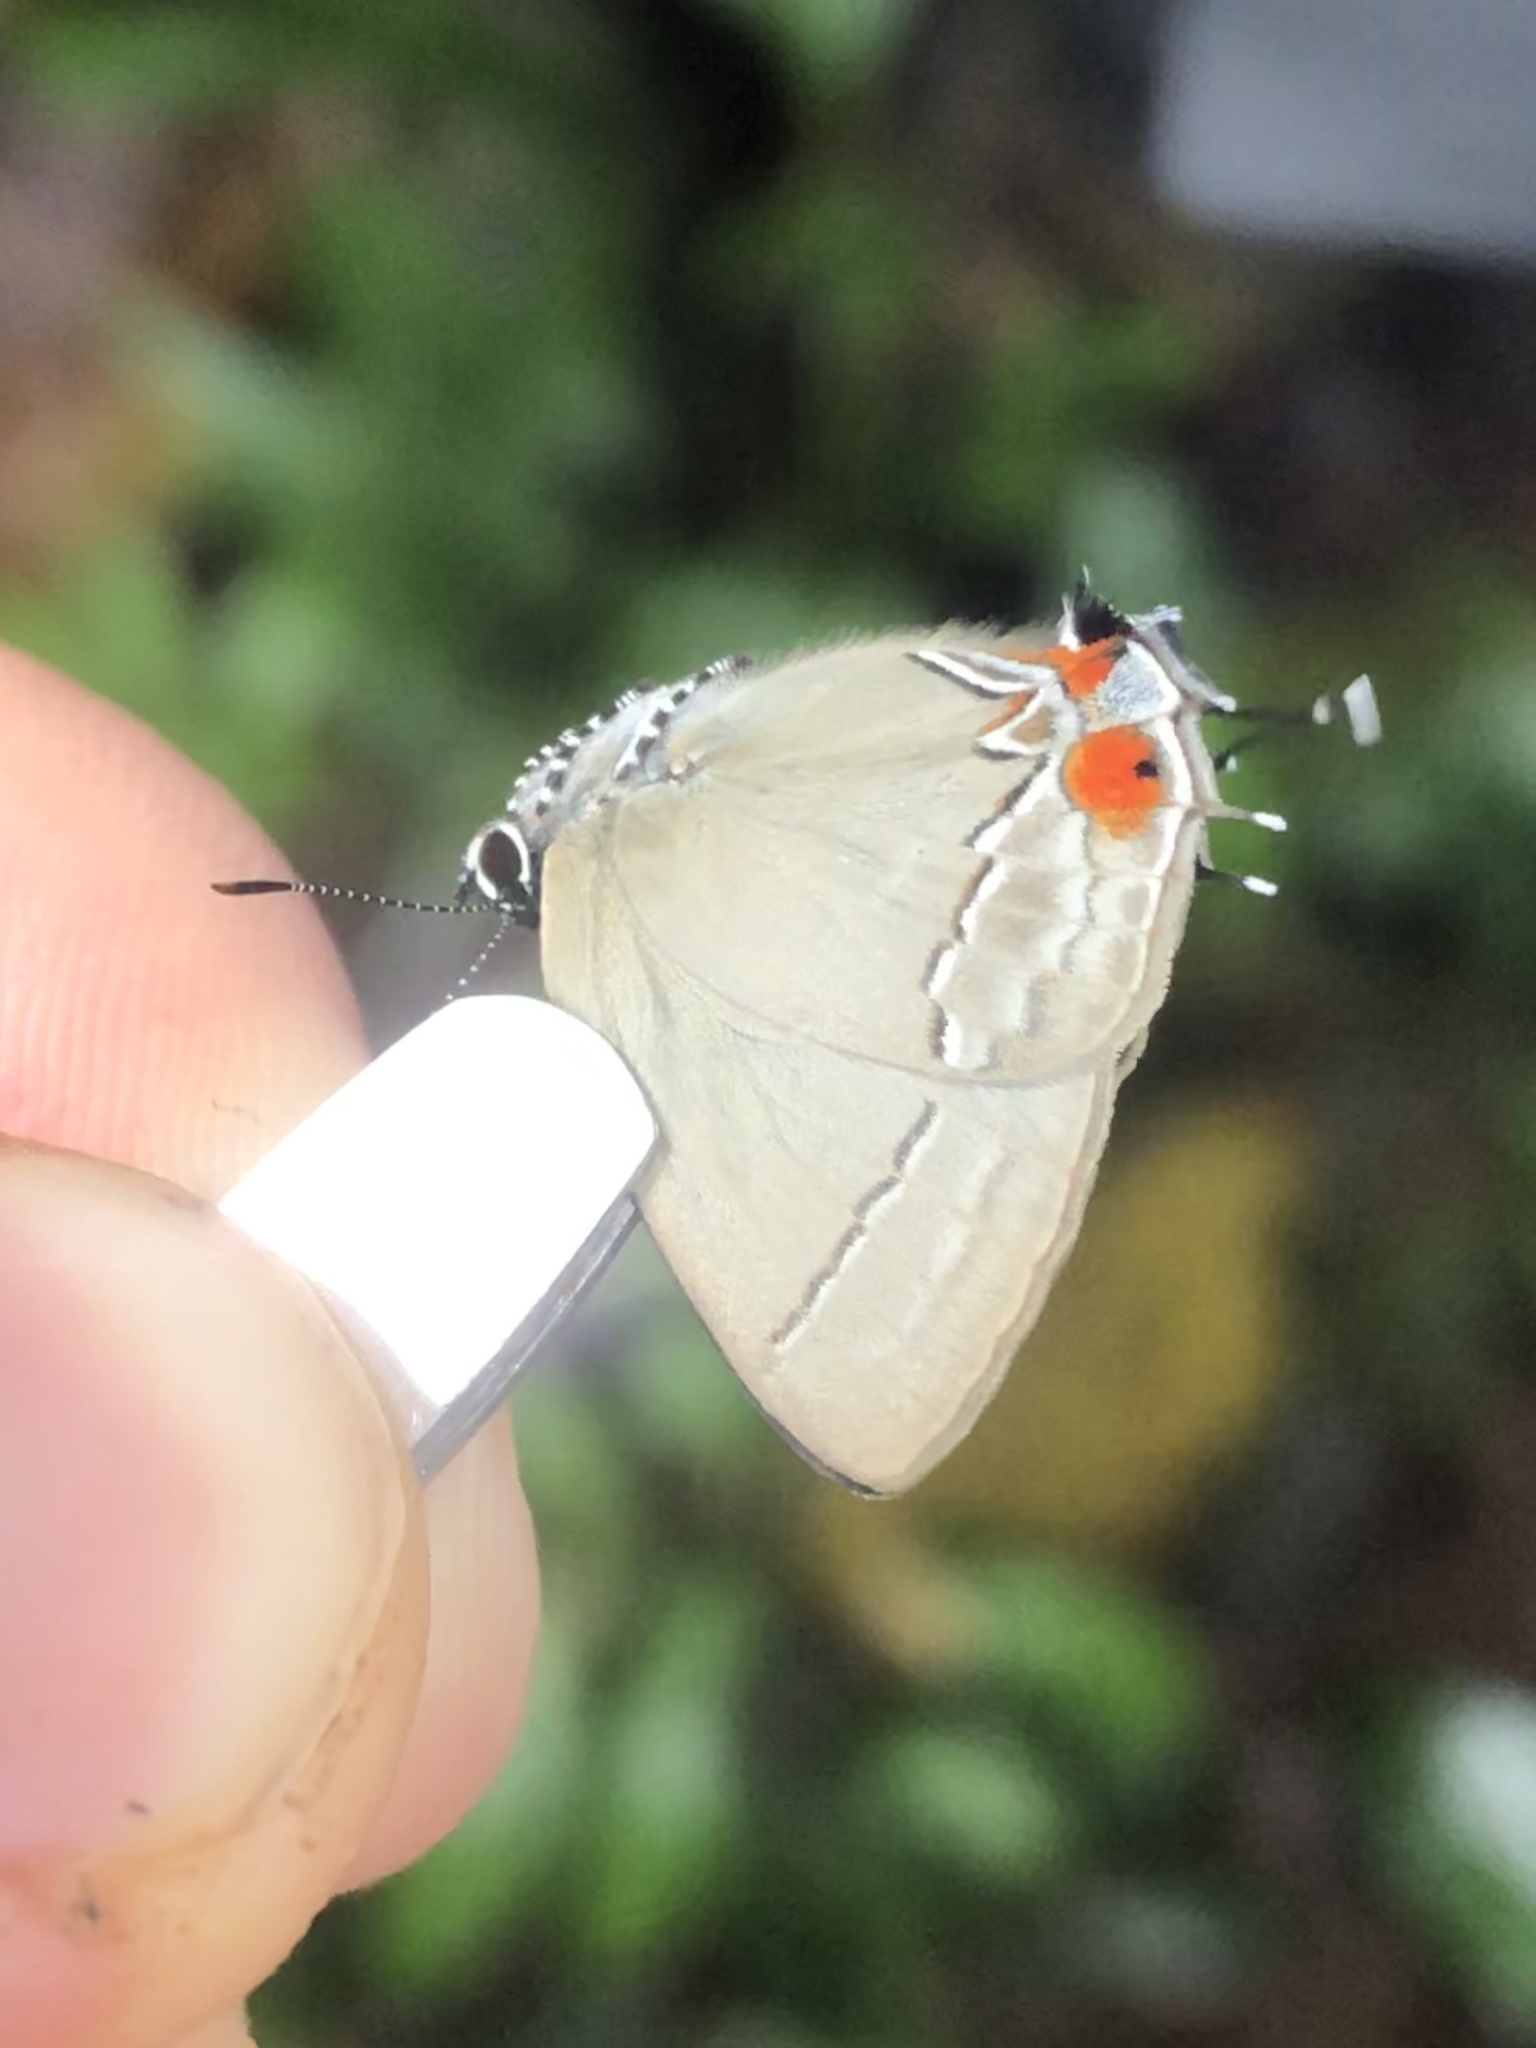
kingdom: Animalia
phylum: Arthropoda
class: Insecta
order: Lepidoptera
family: Lycaenidae
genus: Camissecla
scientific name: Camissecla
